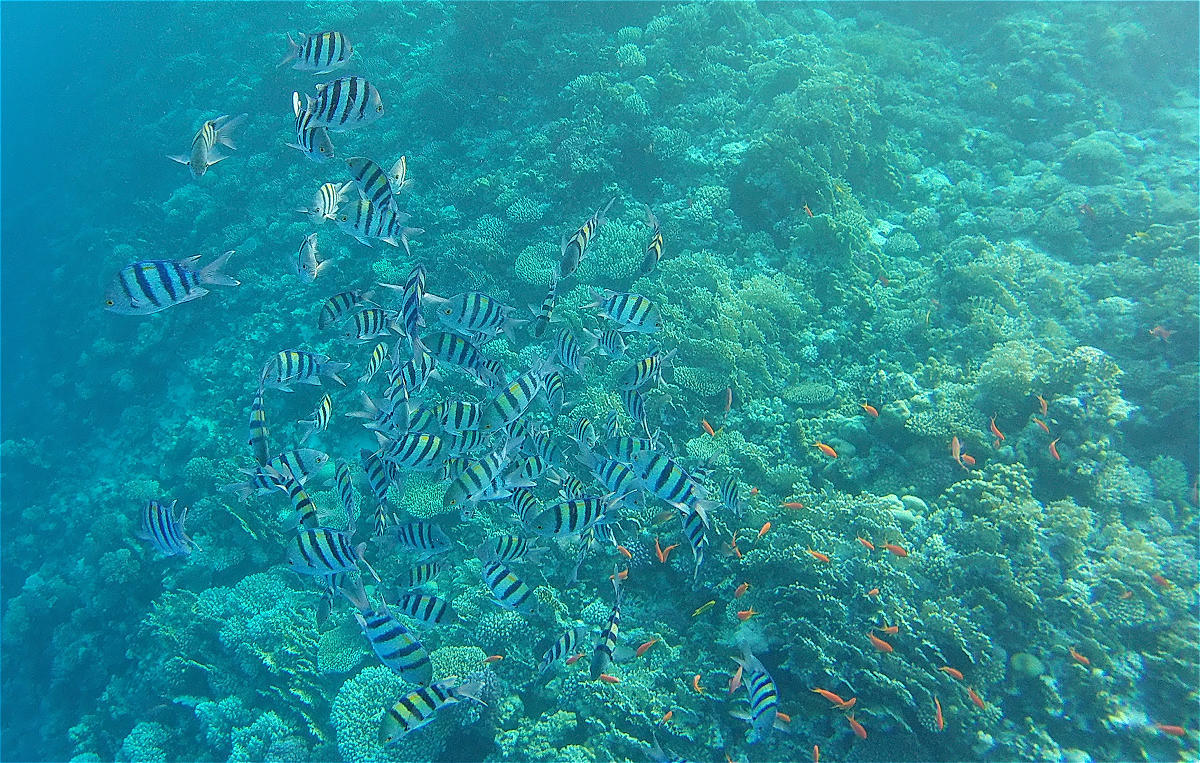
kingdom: Animalia
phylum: Chordata
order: Perciformes
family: Pomacentridae
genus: Abudefduf
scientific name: Abudefduf vaigiensis
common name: Indo-pacific sergeant
